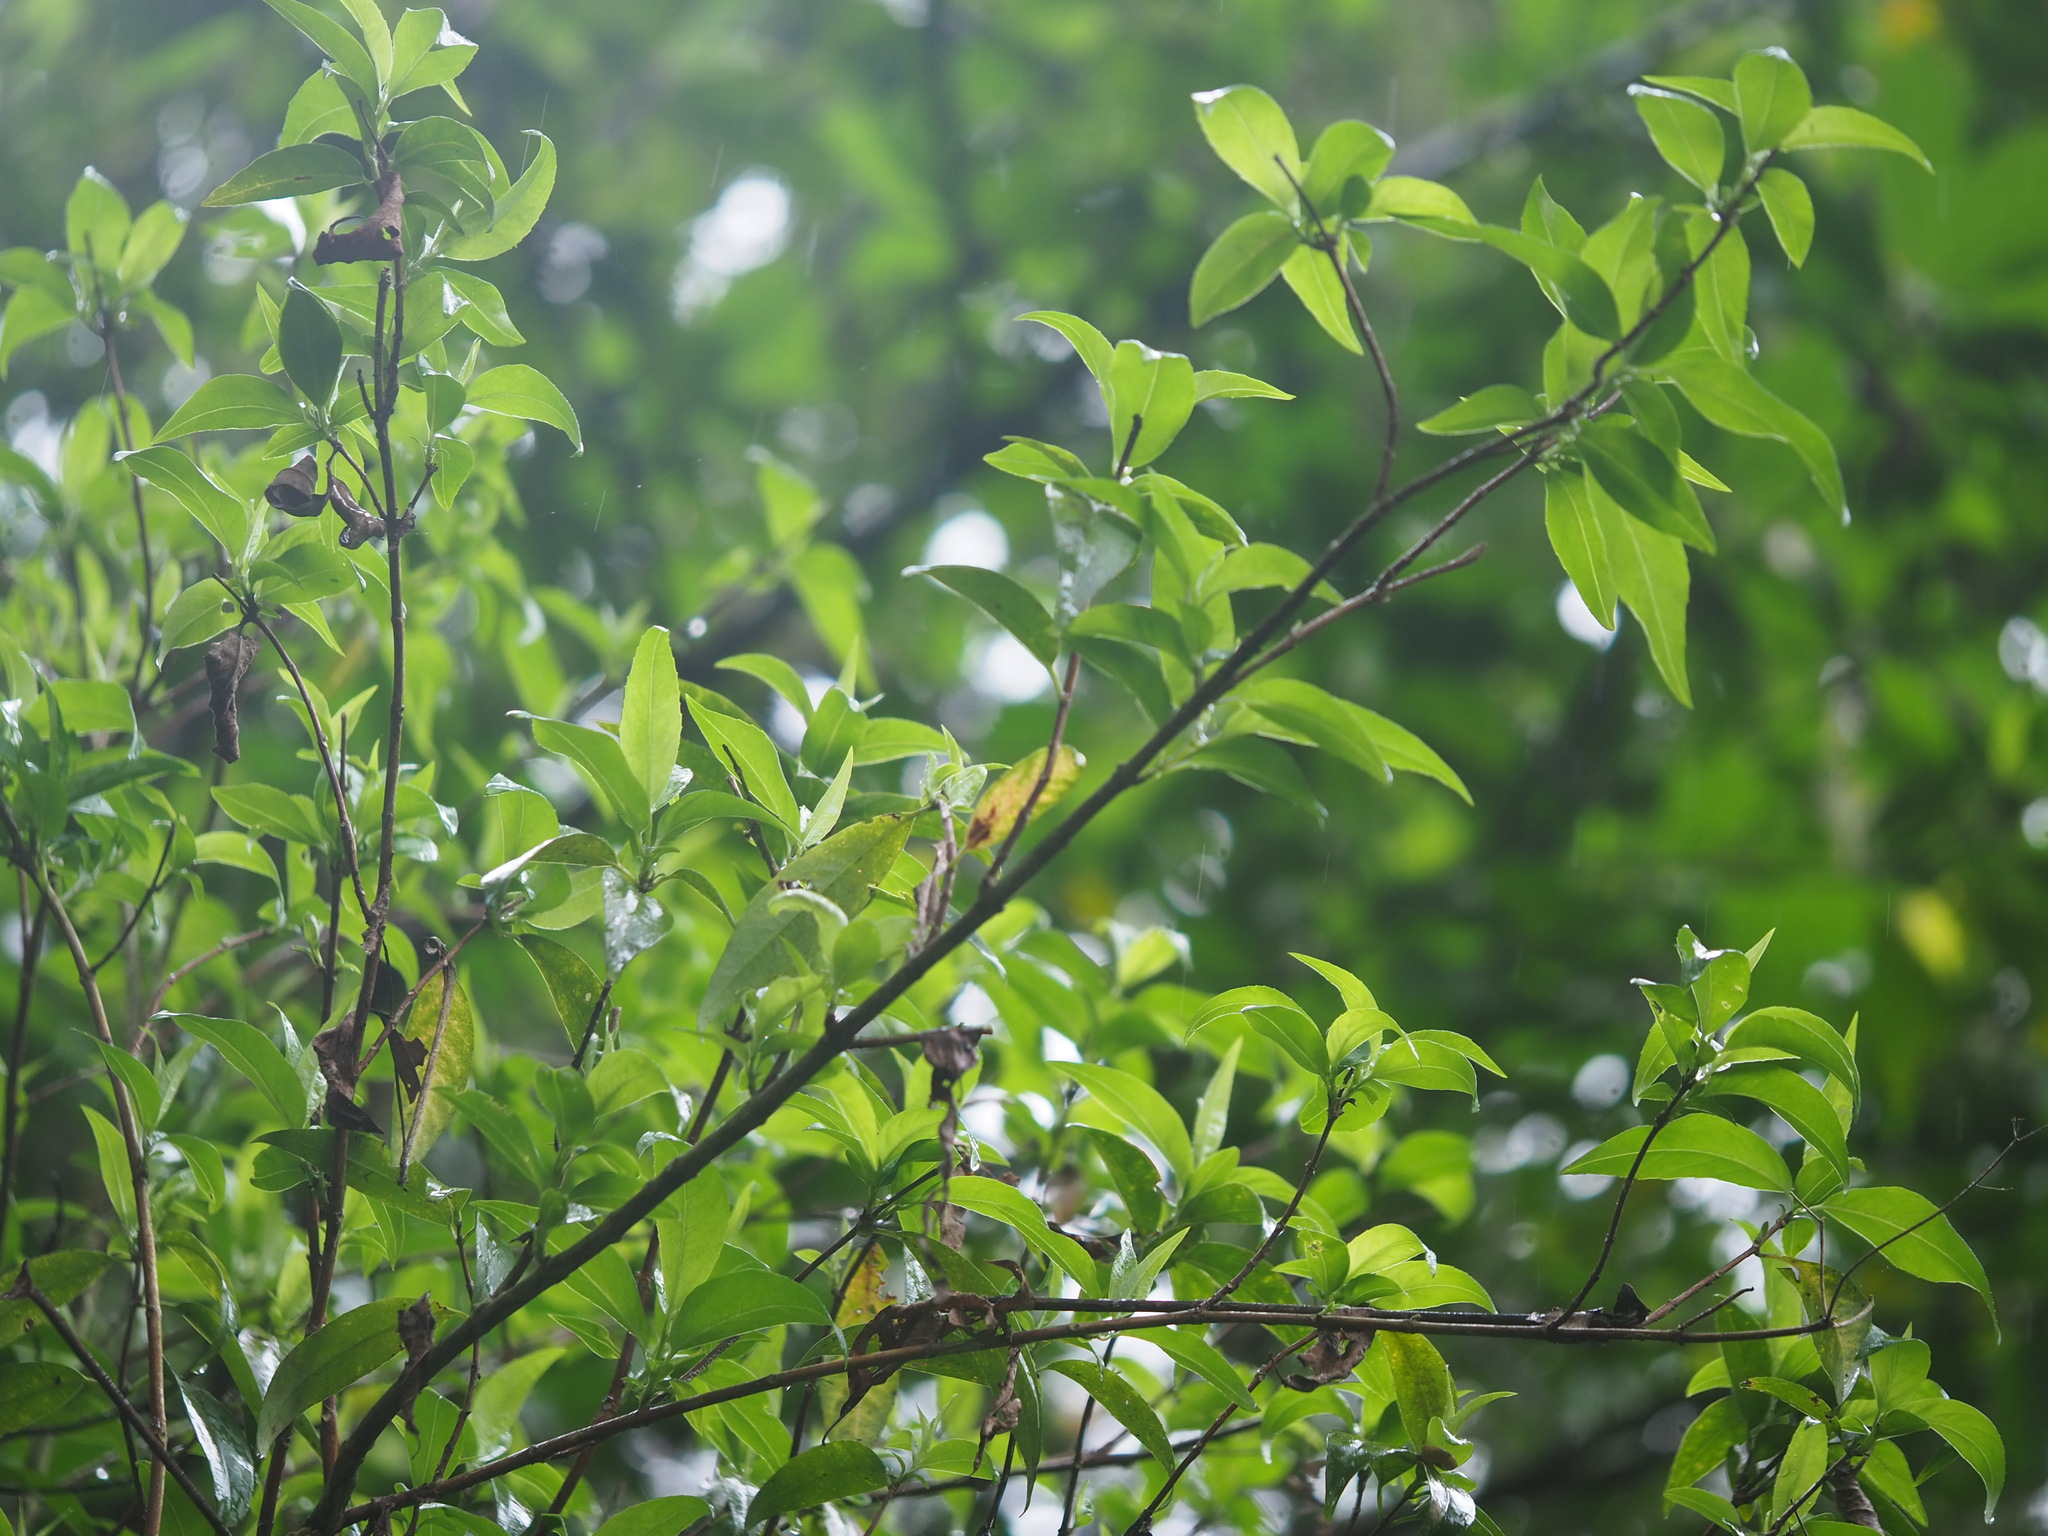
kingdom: Plantae
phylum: Tracheophyta
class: Magnoliopsida
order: Cornales
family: Hydrangeaceae
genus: Hydrangea
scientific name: Hydrangea chinensis
